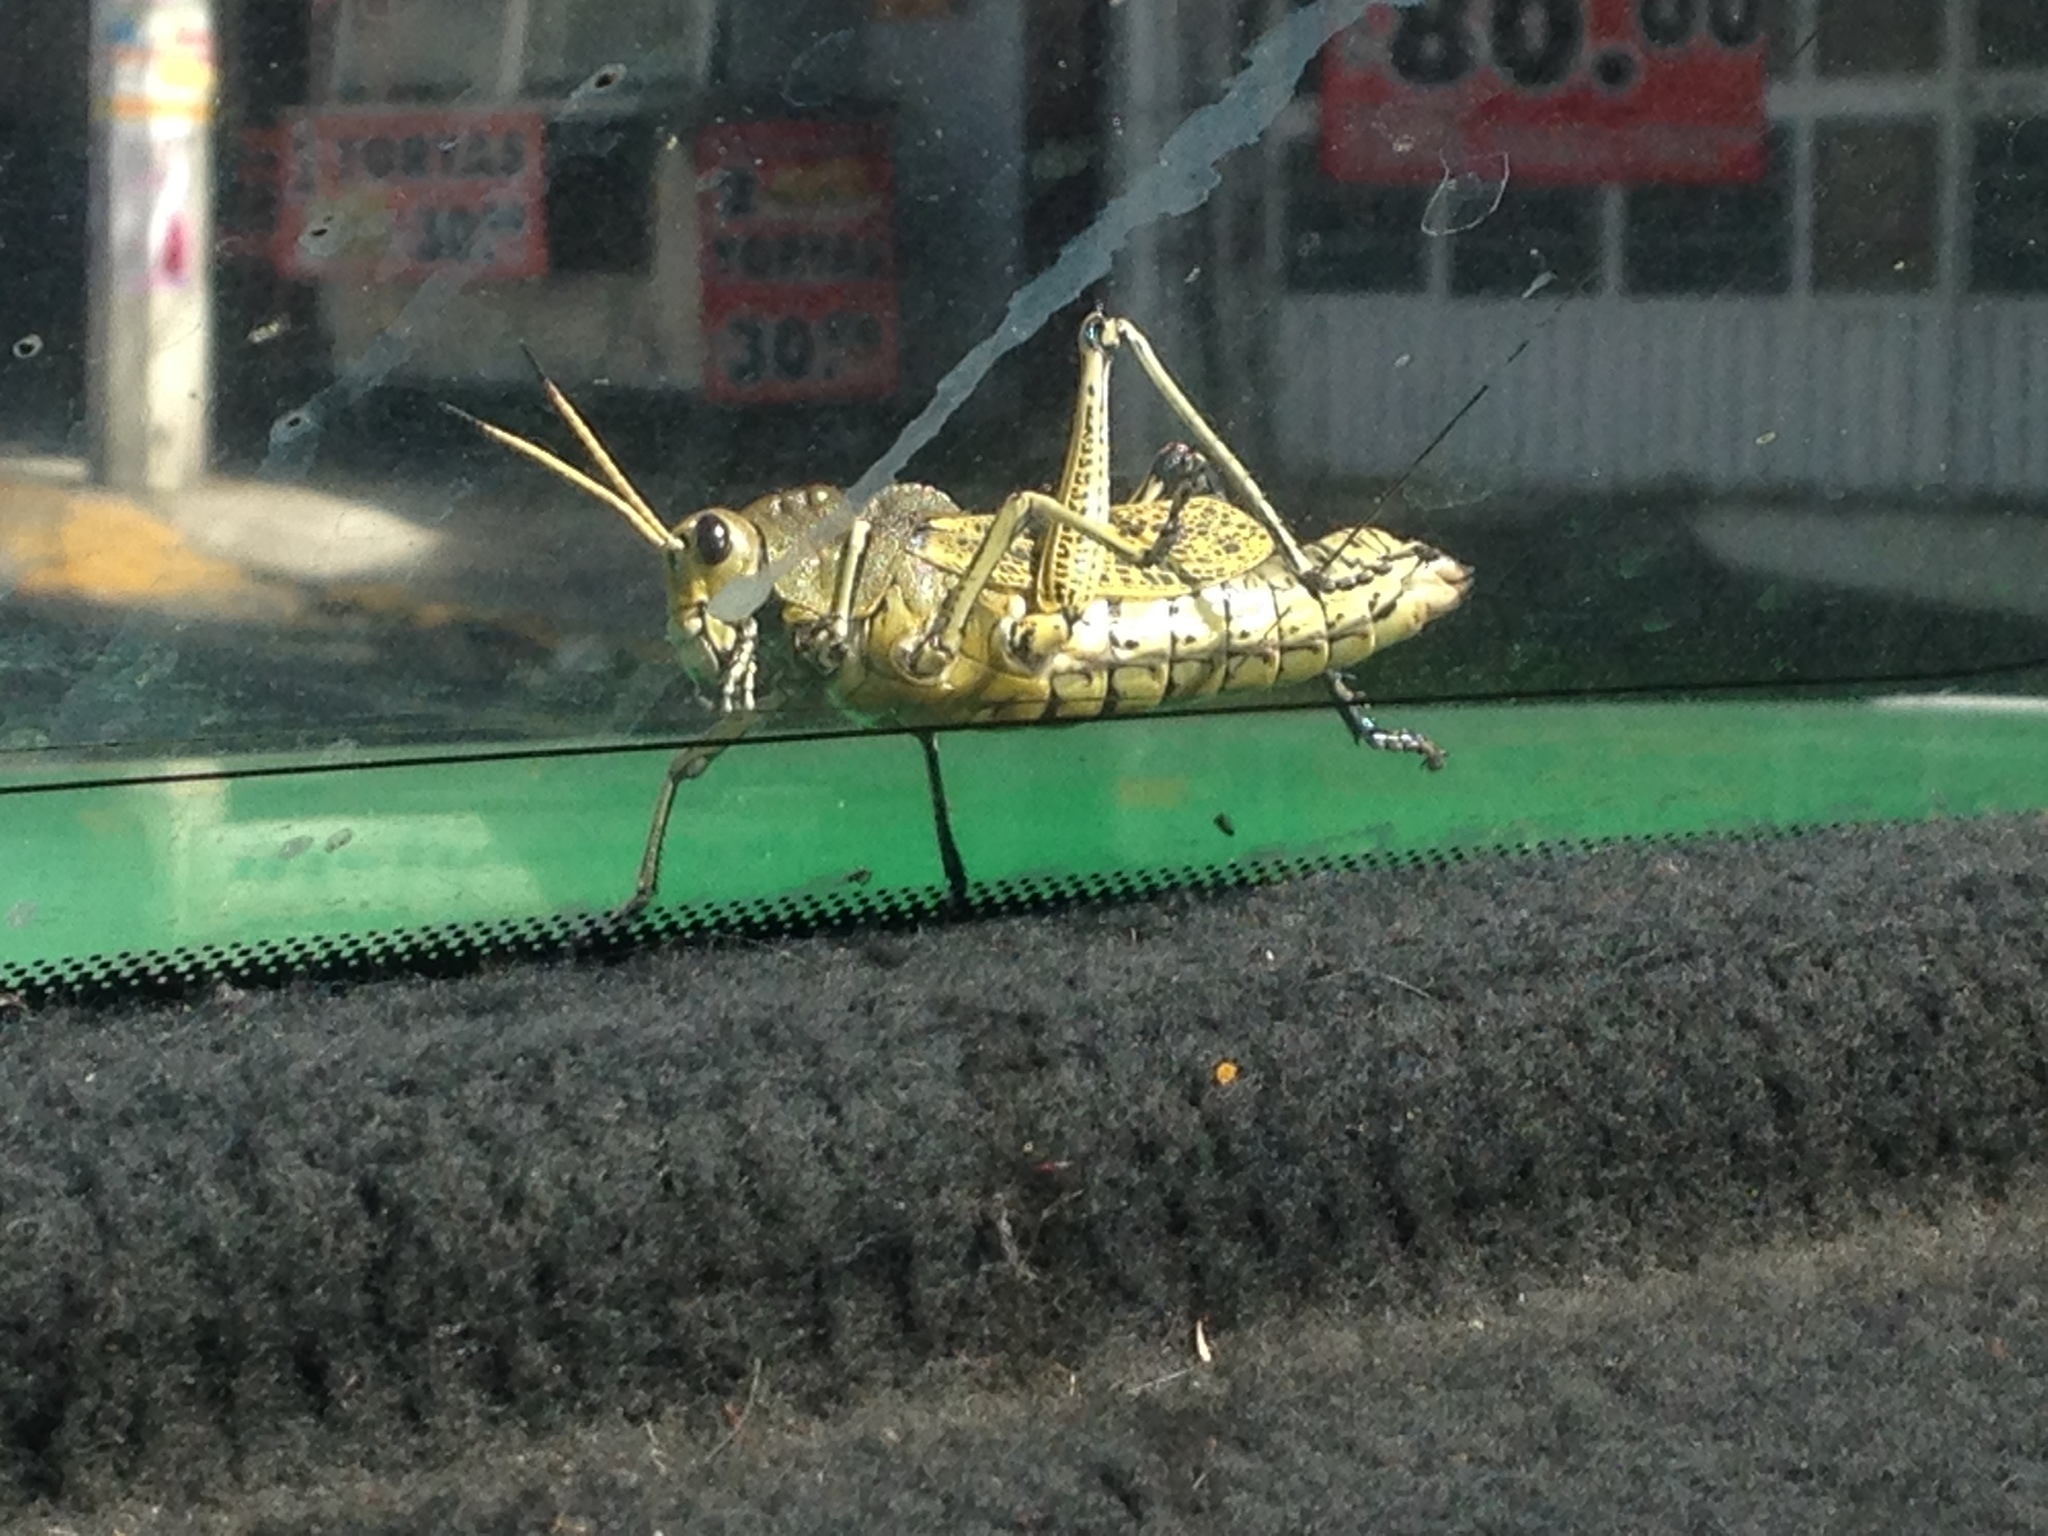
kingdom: Animalia
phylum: Arthropoda
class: Insecta
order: Orthoptera
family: Romaleidae
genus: Romalea
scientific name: Romalea
